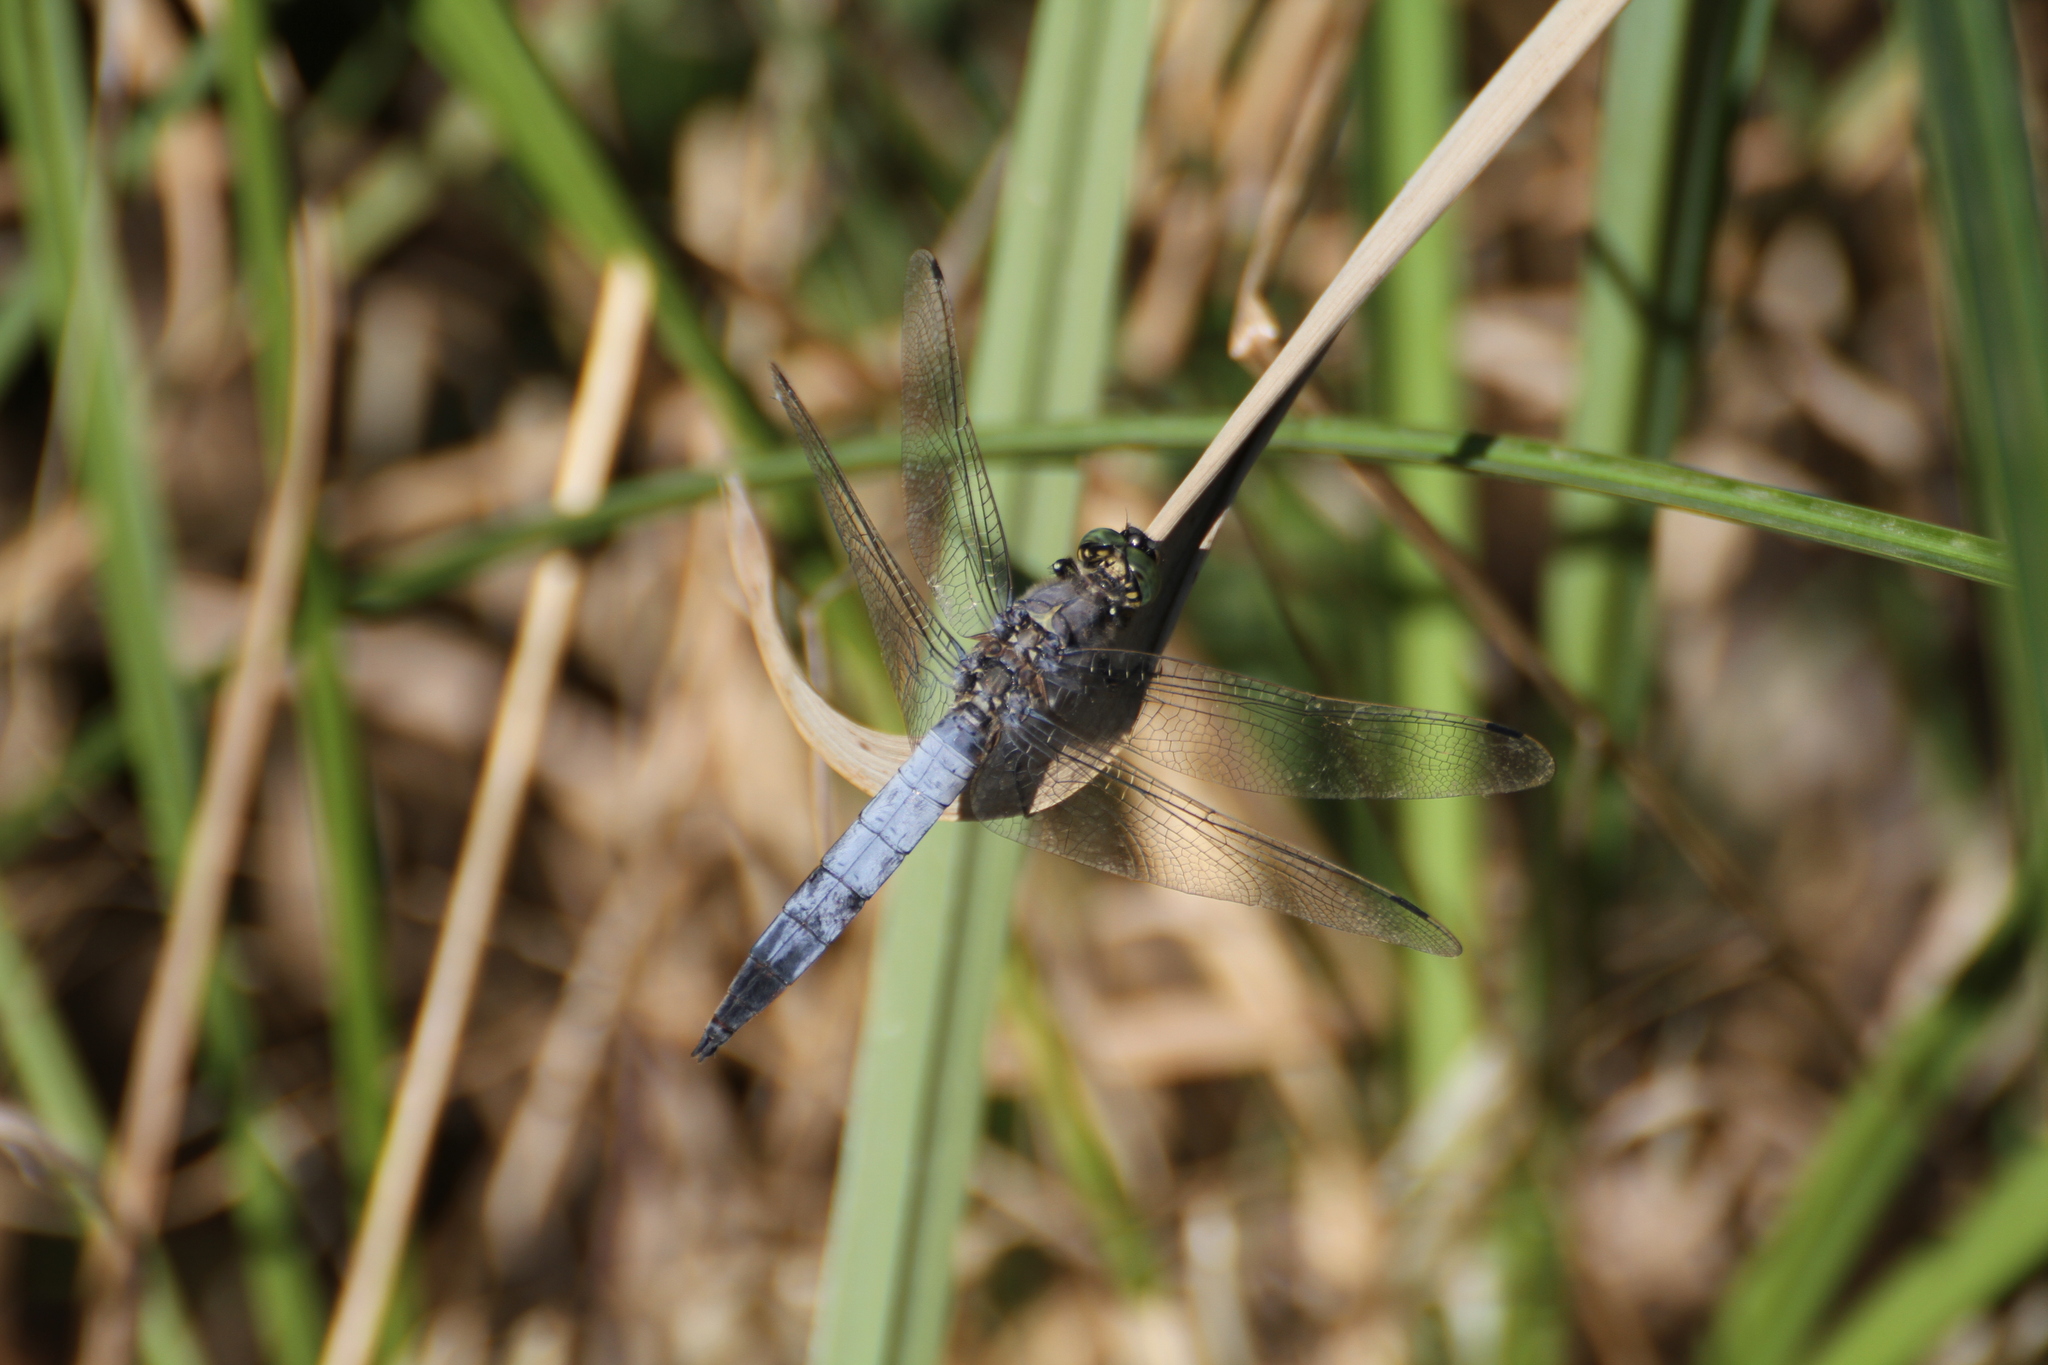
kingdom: Animalia
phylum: Arthropoda
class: Insecta
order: Odonata
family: Libellulidae
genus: Orthetrum
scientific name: Orthetrum cancellatum
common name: Black-tailed skimmer
